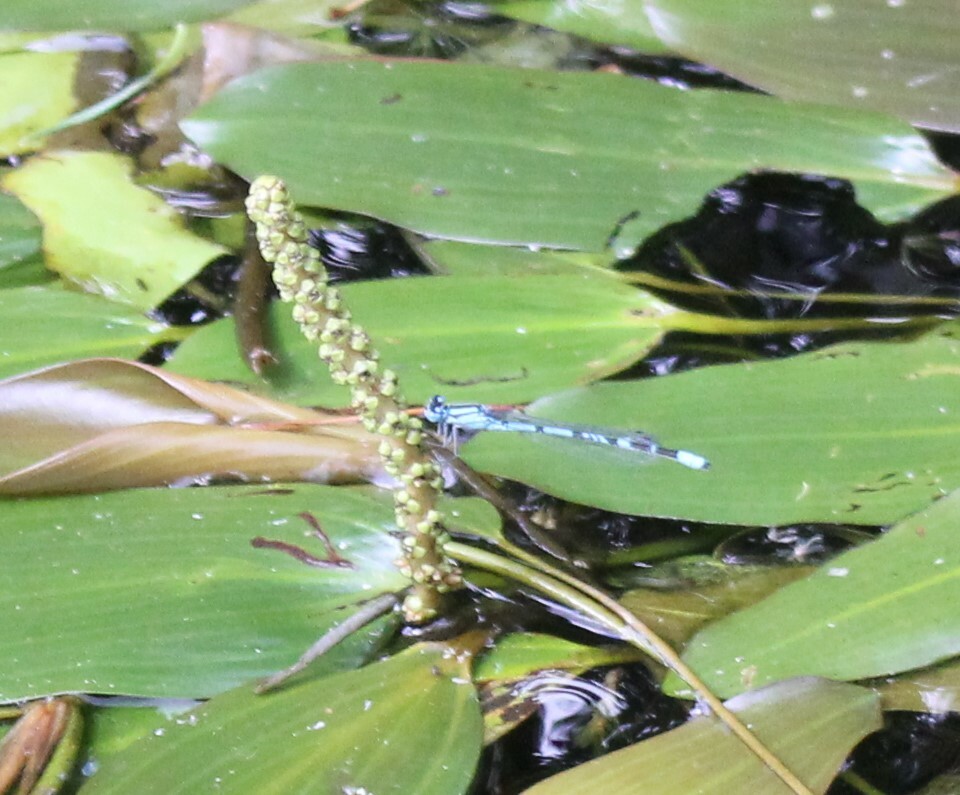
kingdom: Animalia
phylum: Arthropoda
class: Insecta
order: Odonata
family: Coenagrionidae
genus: Enallagma
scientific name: Enallagma cyathigerum
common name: Common blue damselfly
